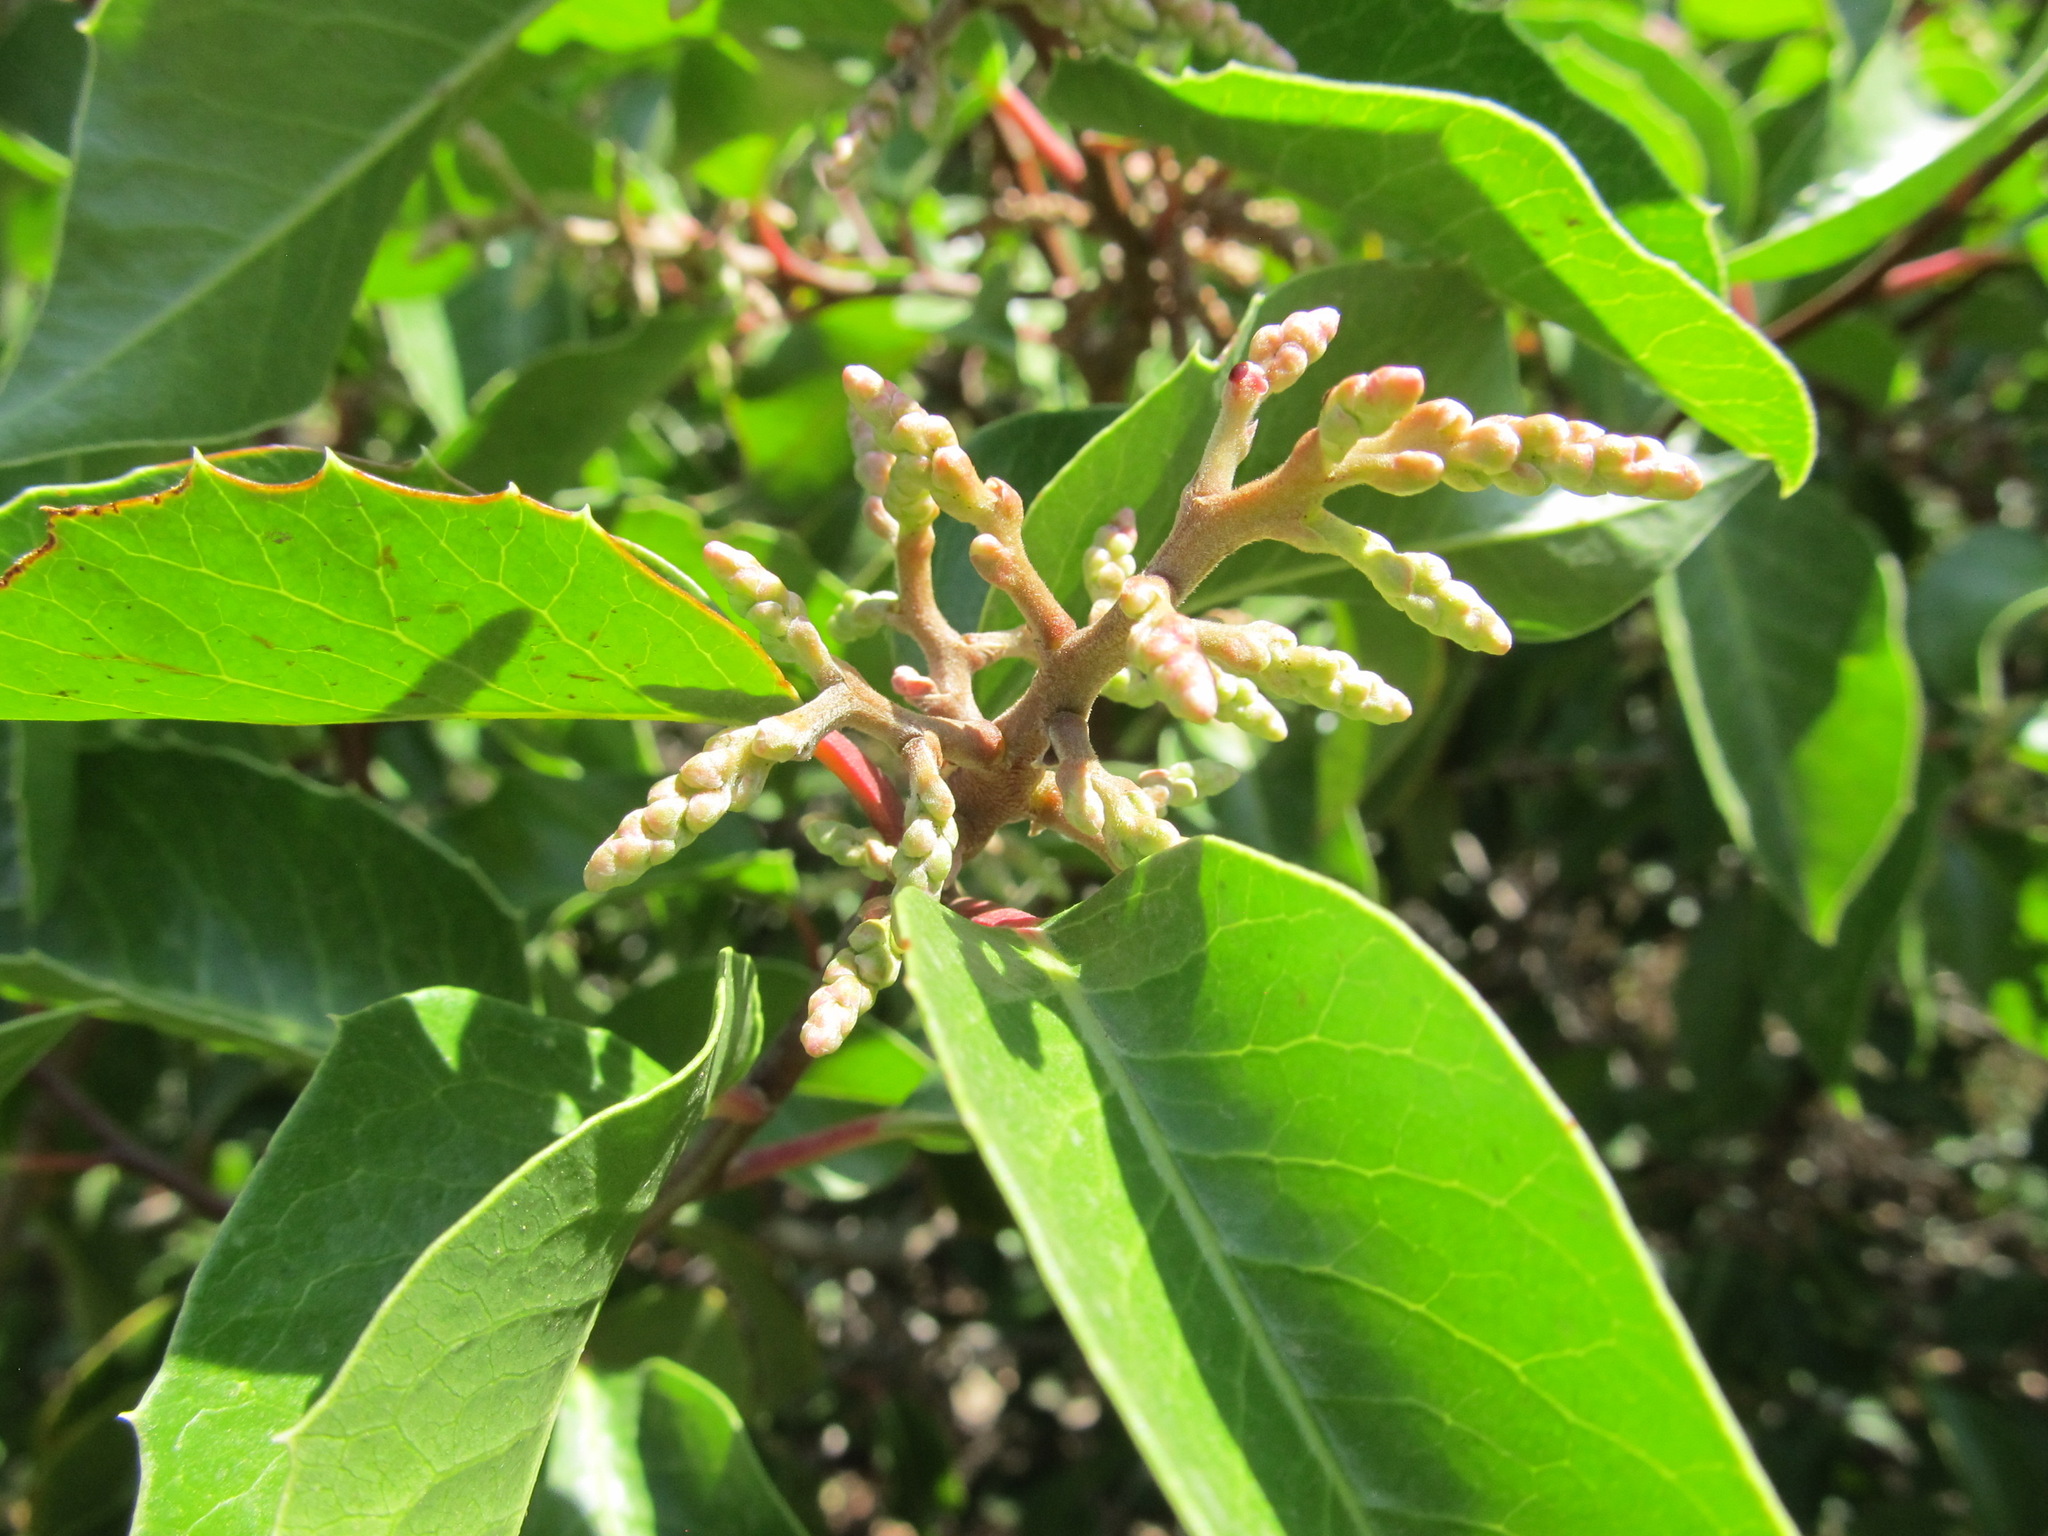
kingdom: Plantae
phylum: Tracheophyta
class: Magnoliopsida
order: Sapindales
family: Anacardiaceae
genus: Rhus
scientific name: Rhus
